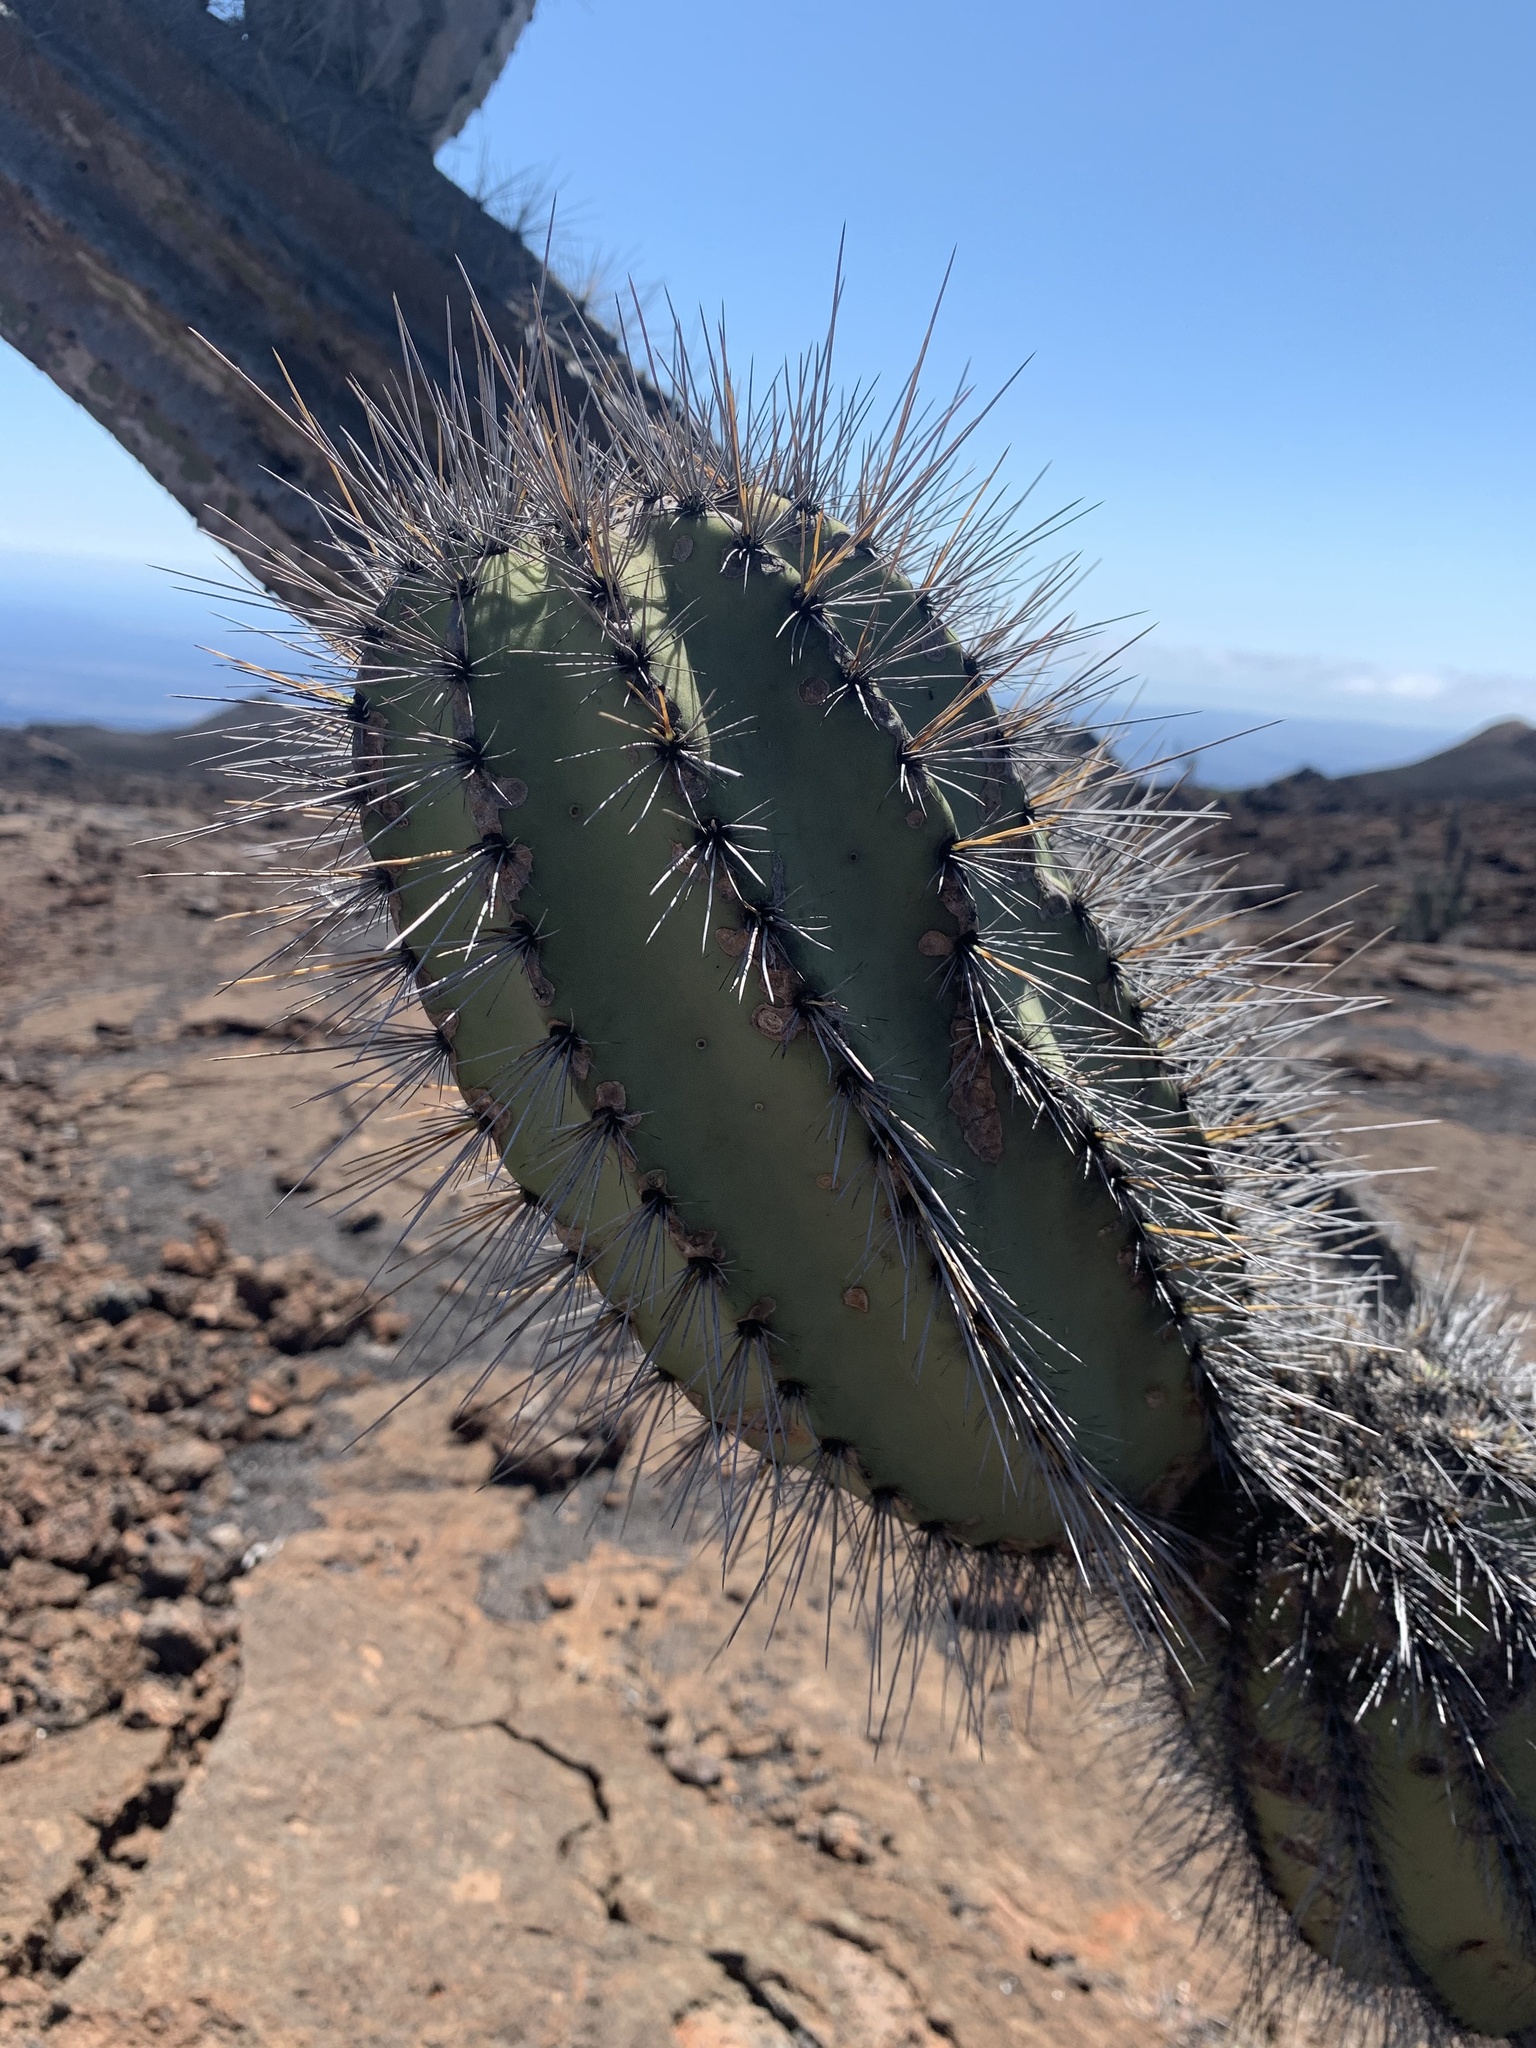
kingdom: Plantae
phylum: Tracheophyta
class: Magnoliopsida
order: Caryophyllales
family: Cactaceae
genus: Jasminocereus
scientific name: Jasminocereus thouarsii
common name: Candelabra cactus
